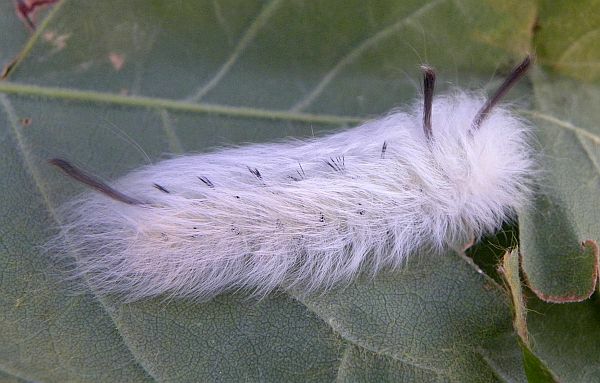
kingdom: Animalia
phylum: Arthropoda
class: Insecta
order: Lepidoptera
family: Apatelodidae
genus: Hygrochroa
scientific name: Hygrochroa Apatelodes torrefacta
